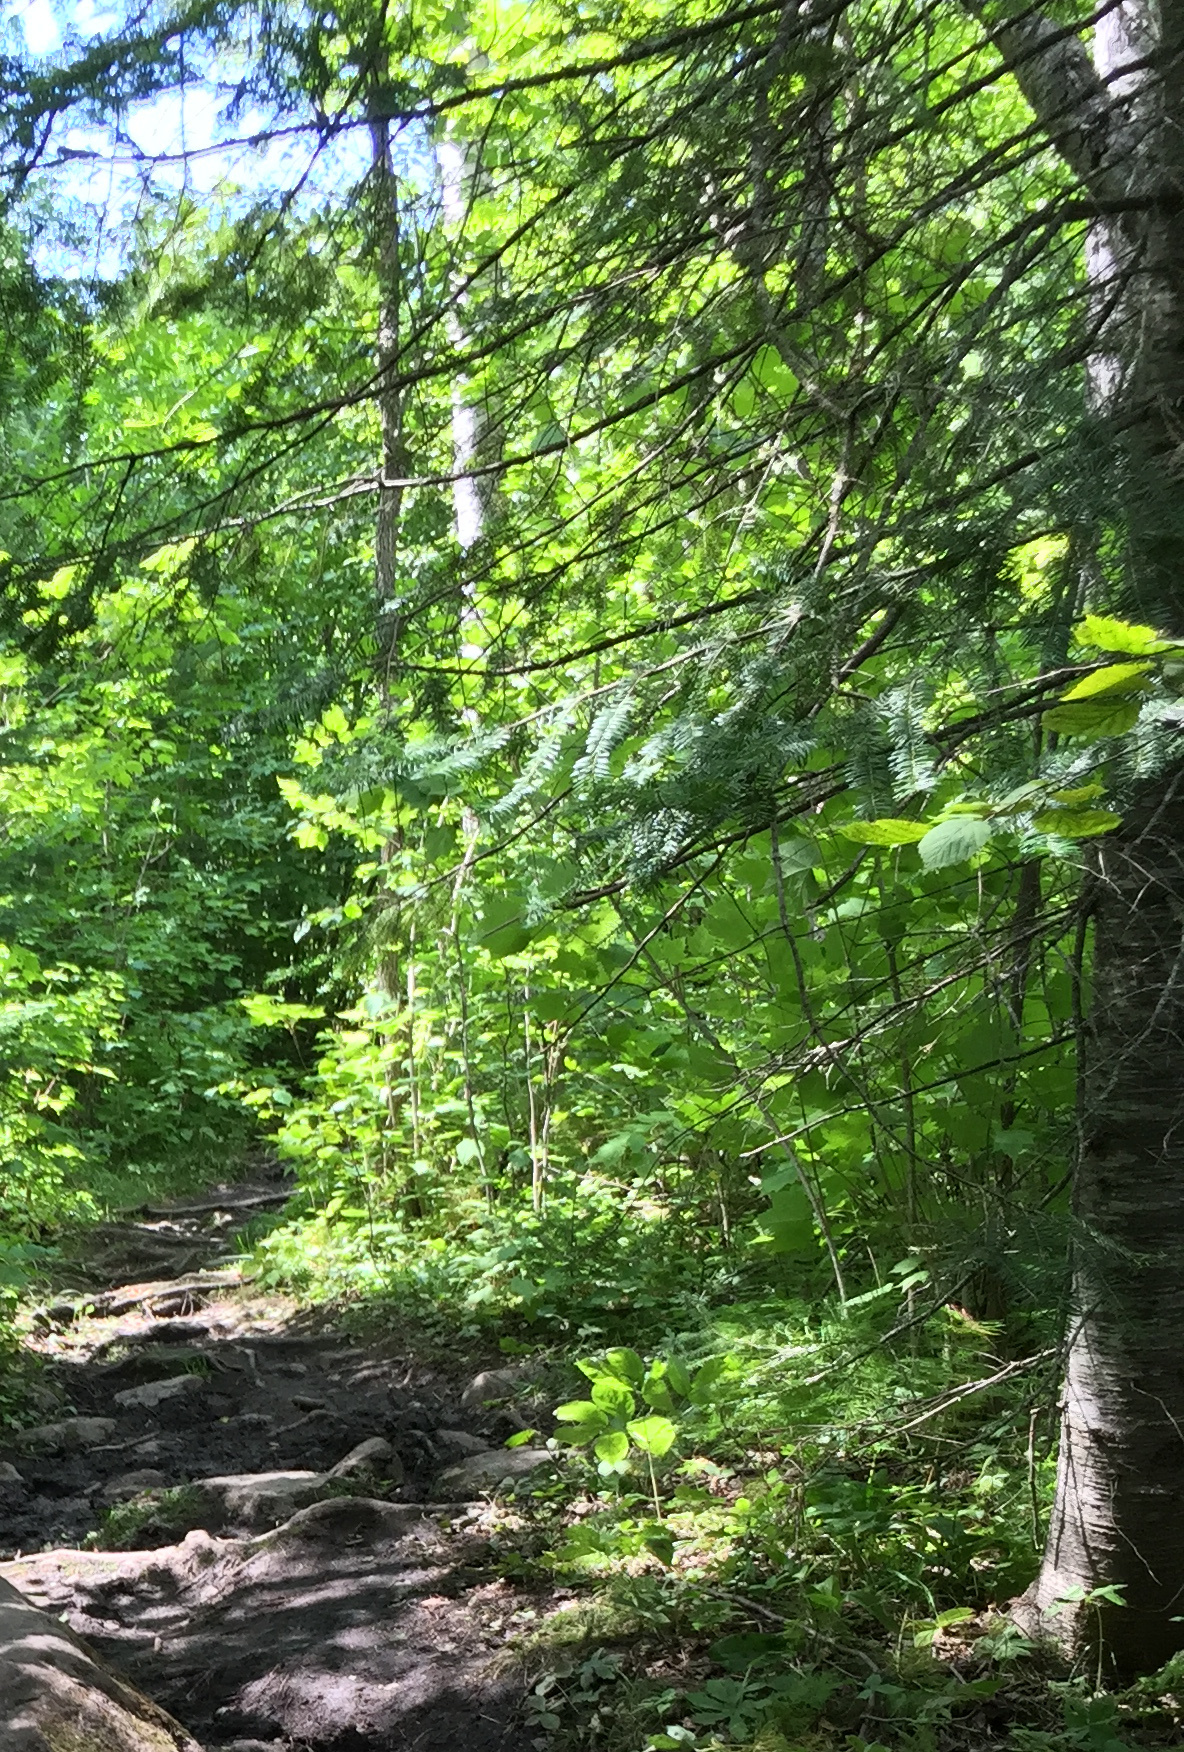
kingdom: Plantae
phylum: Tracheophyta
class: Pinopsida
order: Pinales
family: Pinaceae
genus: Abies
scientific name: Abies balsamea
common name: Balsam fir
